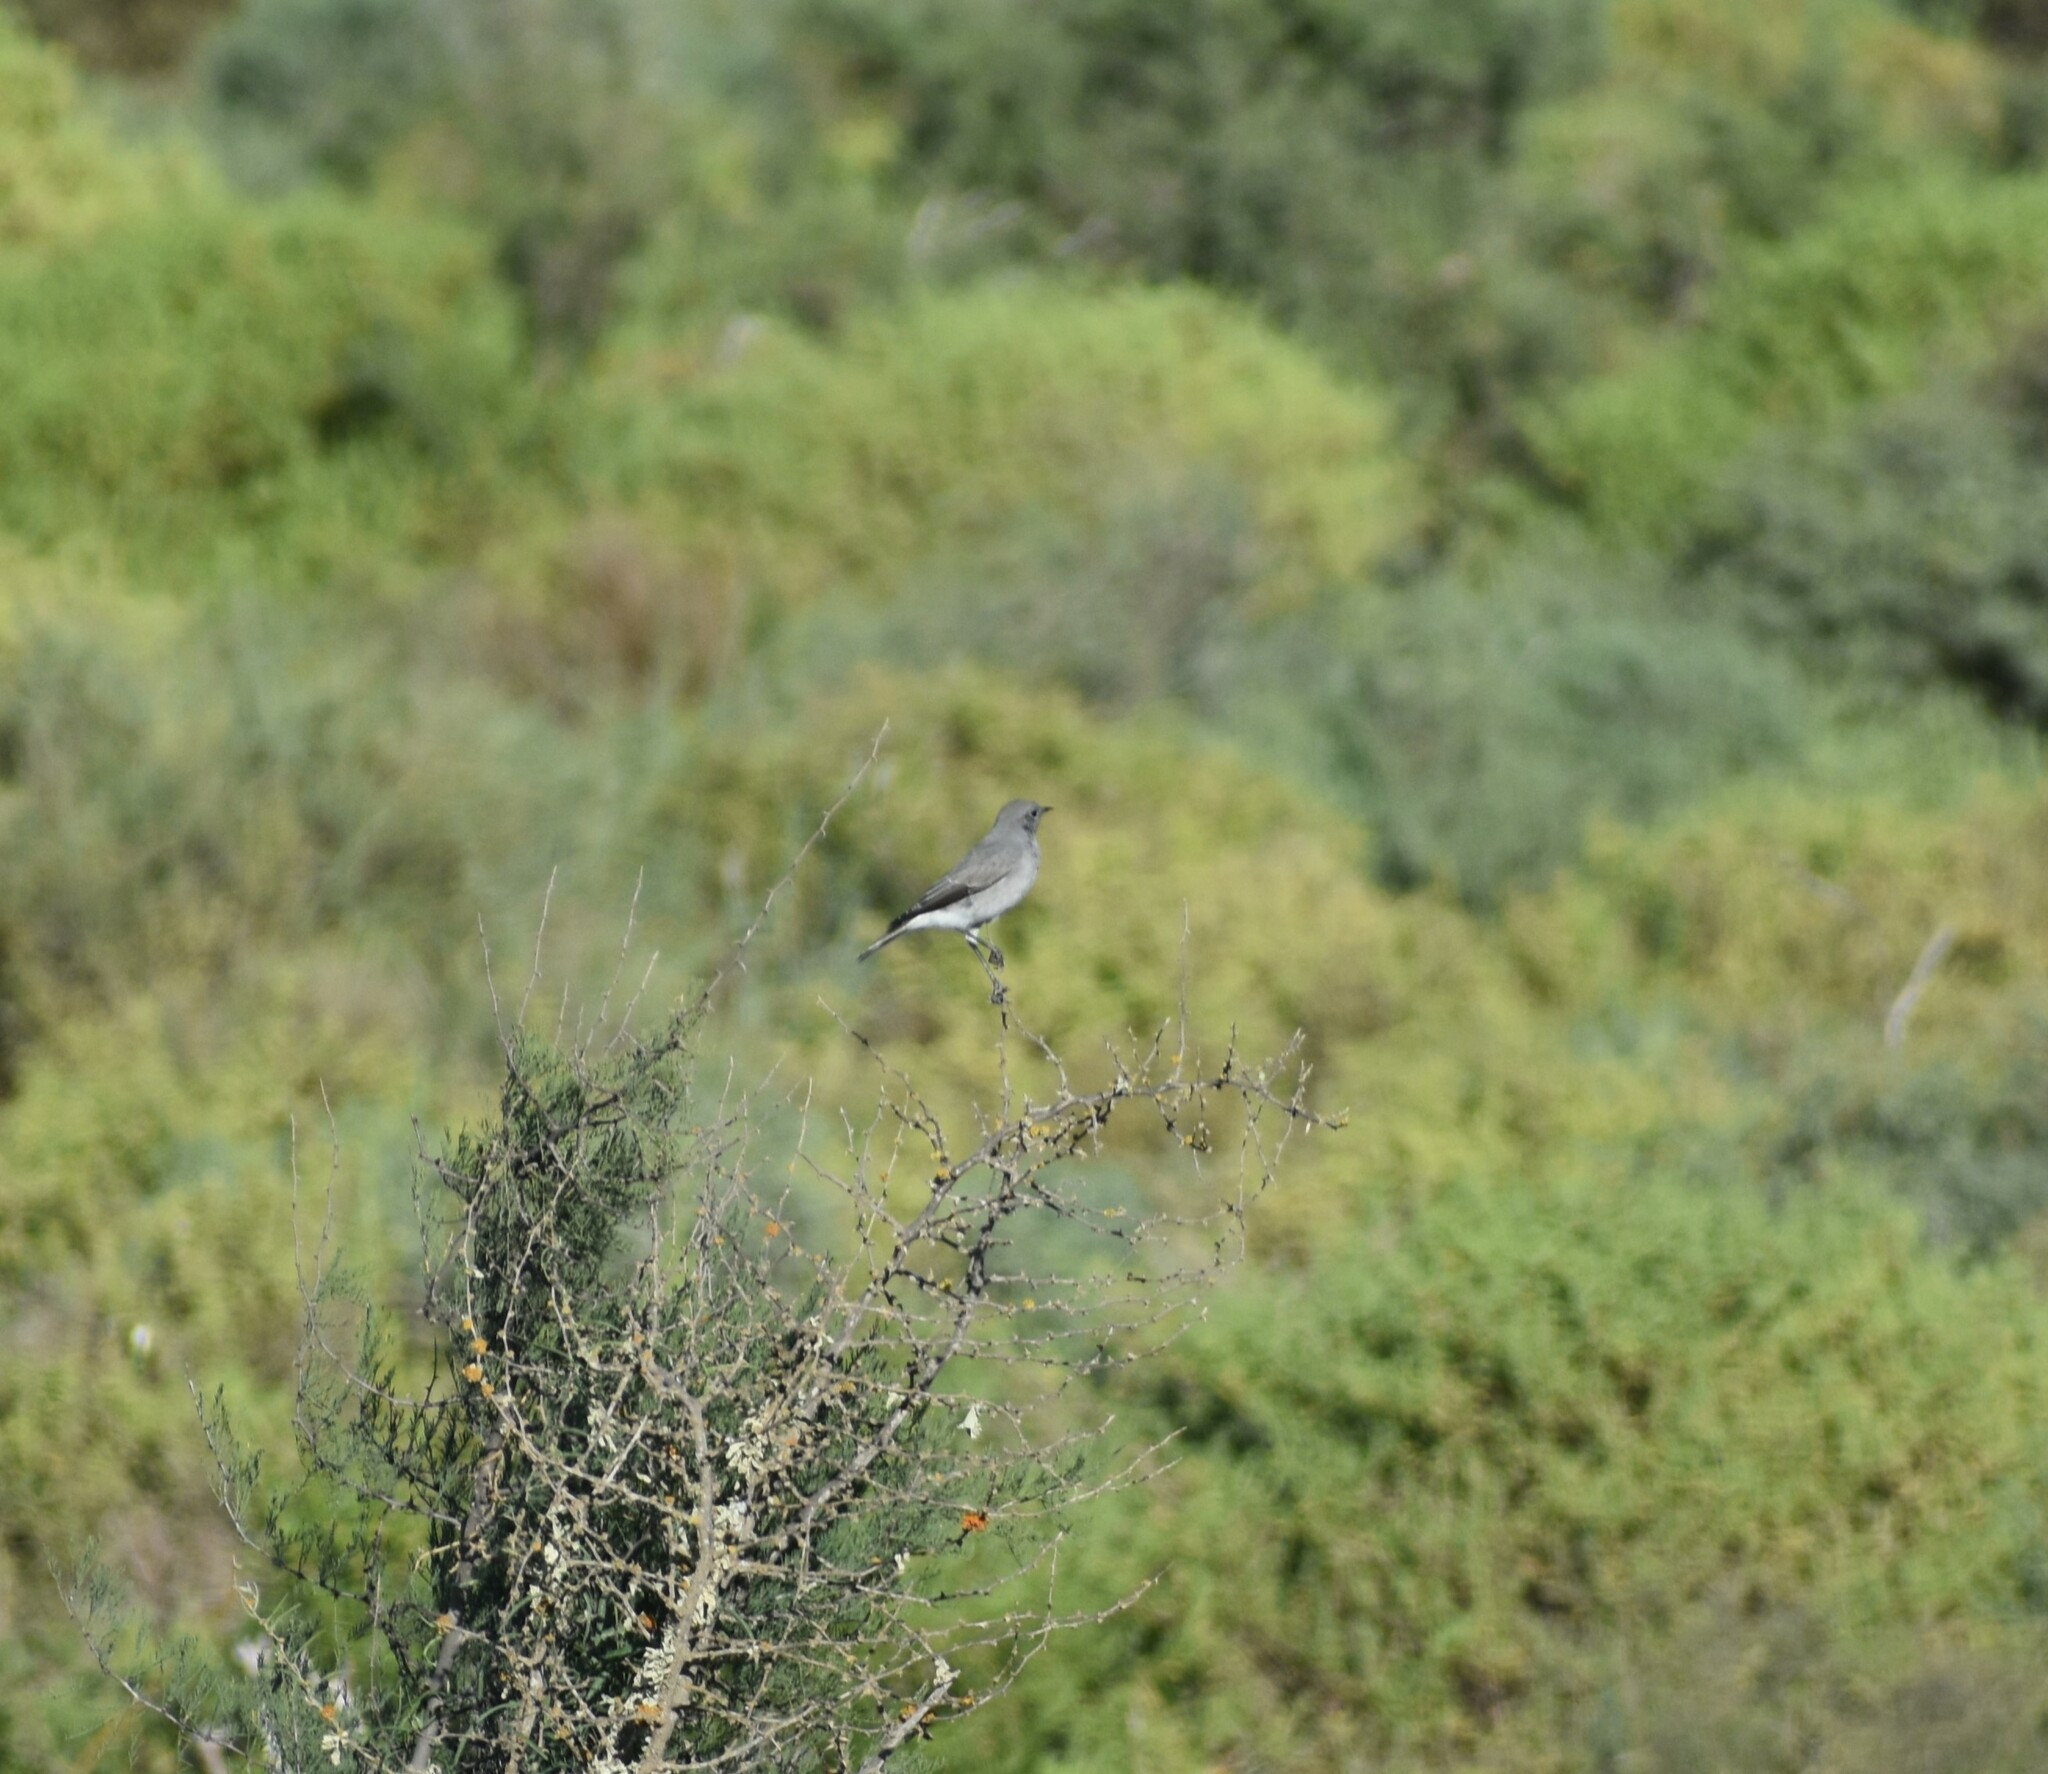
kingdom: Animalia
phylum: Chordata
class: Aves
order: Passeriformes
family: Muscicapidae
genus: Emarginata
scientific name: Emarginata schlegelii
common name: Karoo chat
